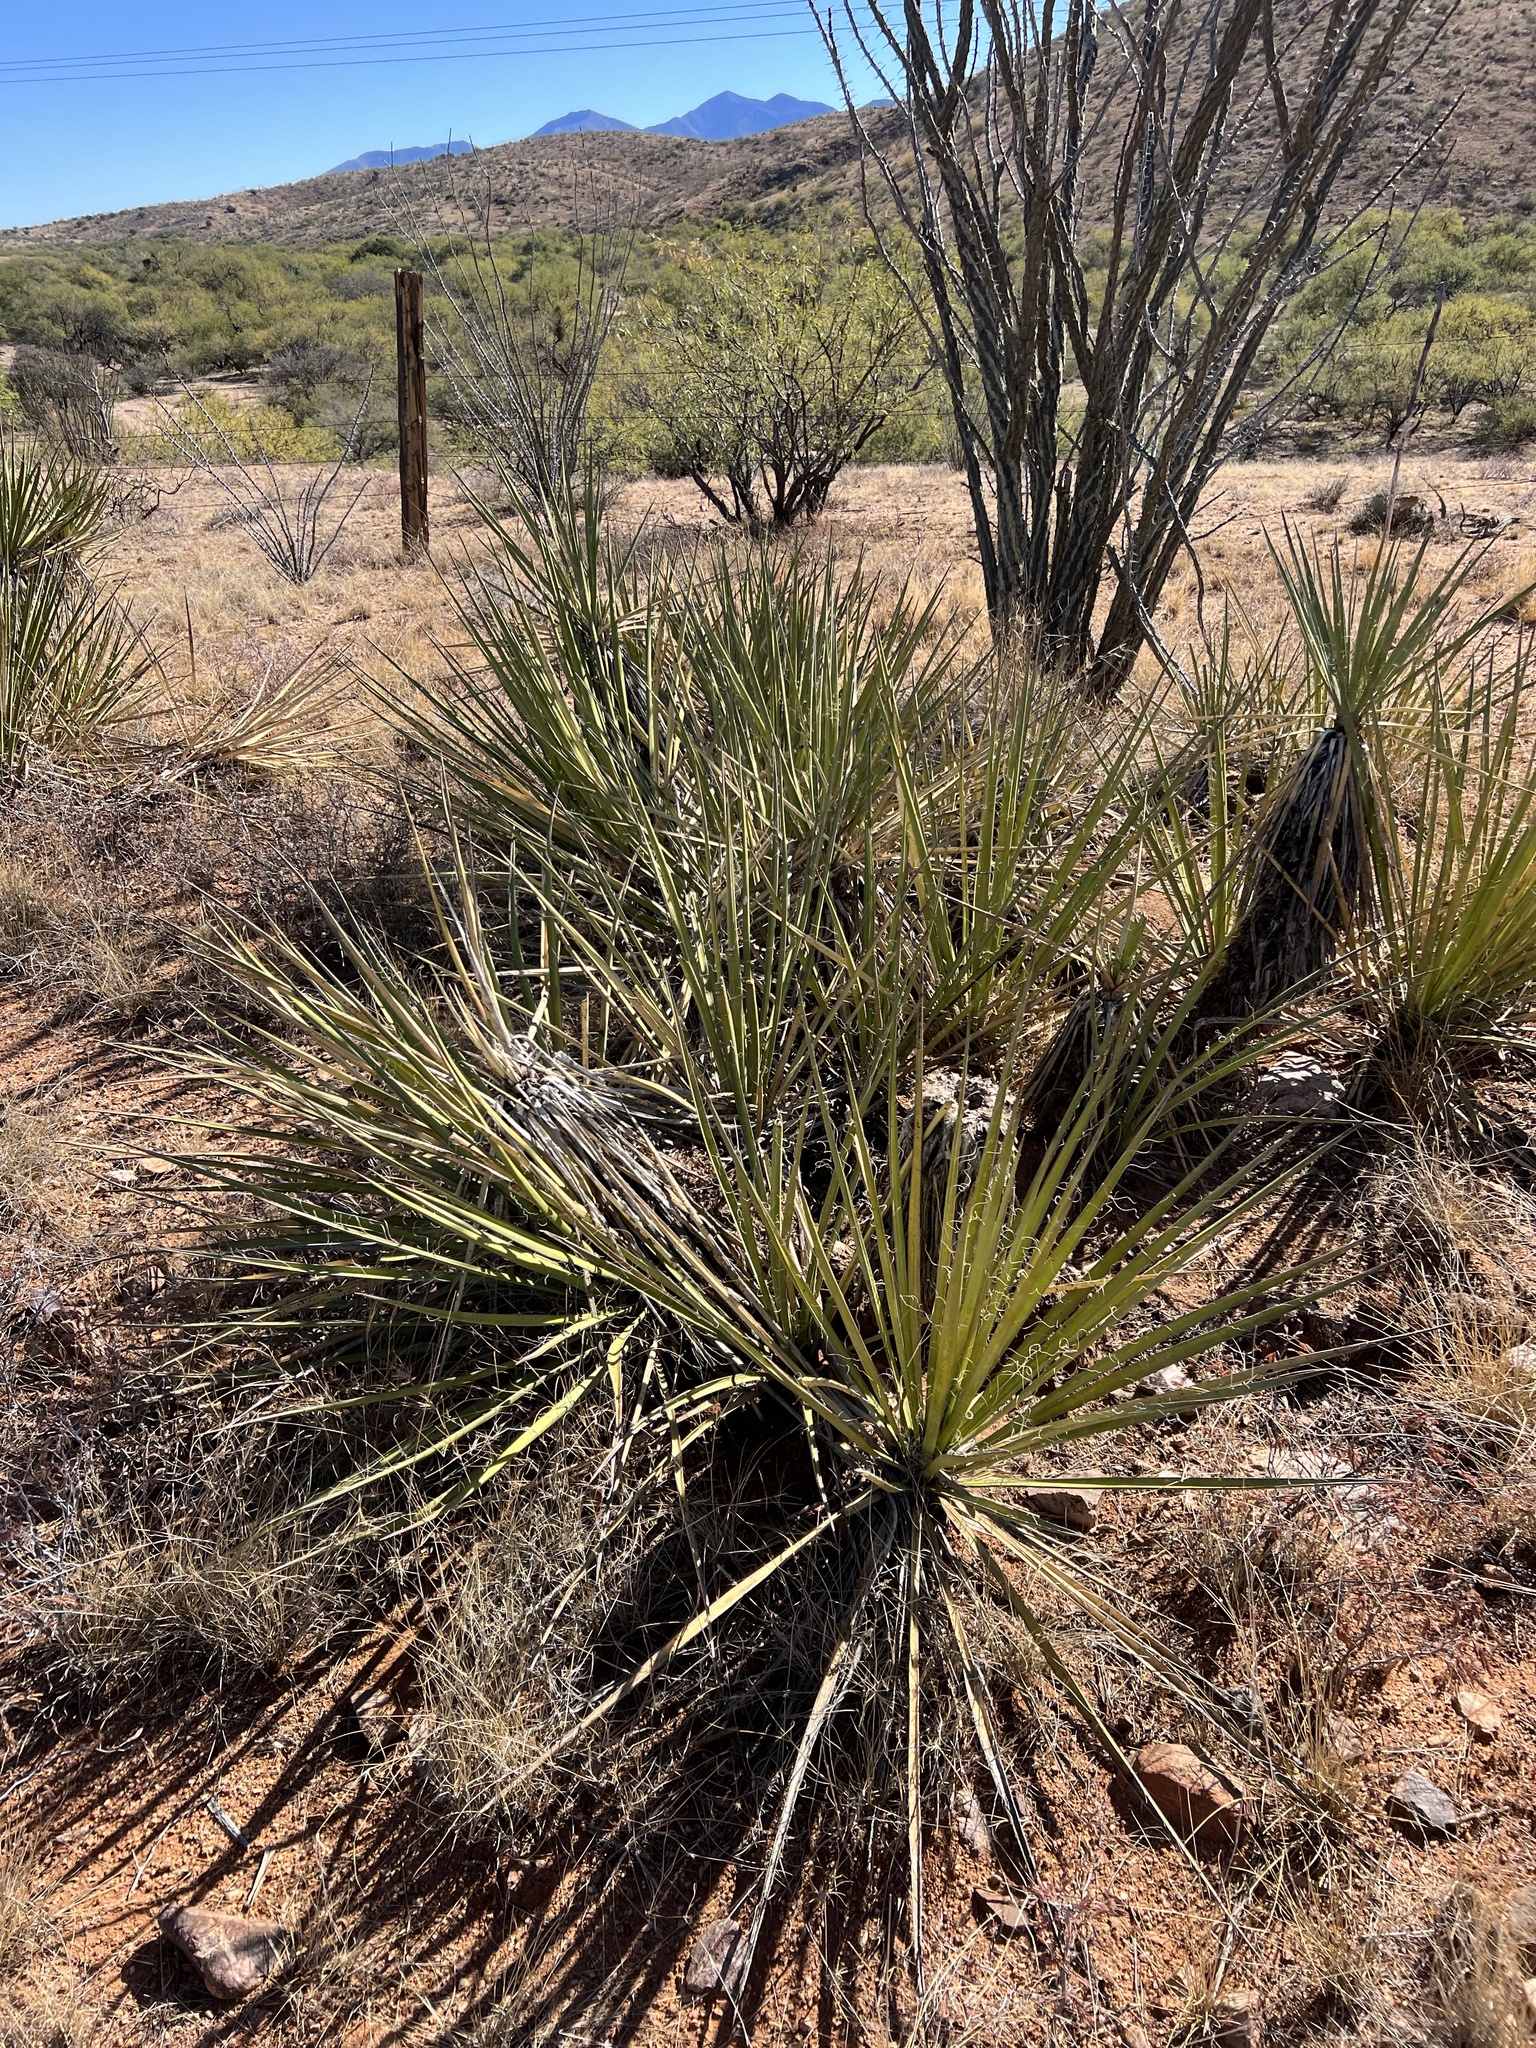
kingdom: Plantae
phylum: Tracheophyta
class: Liliopsida
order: Asparagales
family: Asparagaceae
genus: Yucca
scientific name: Yucca baccata
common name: Banana yucca
